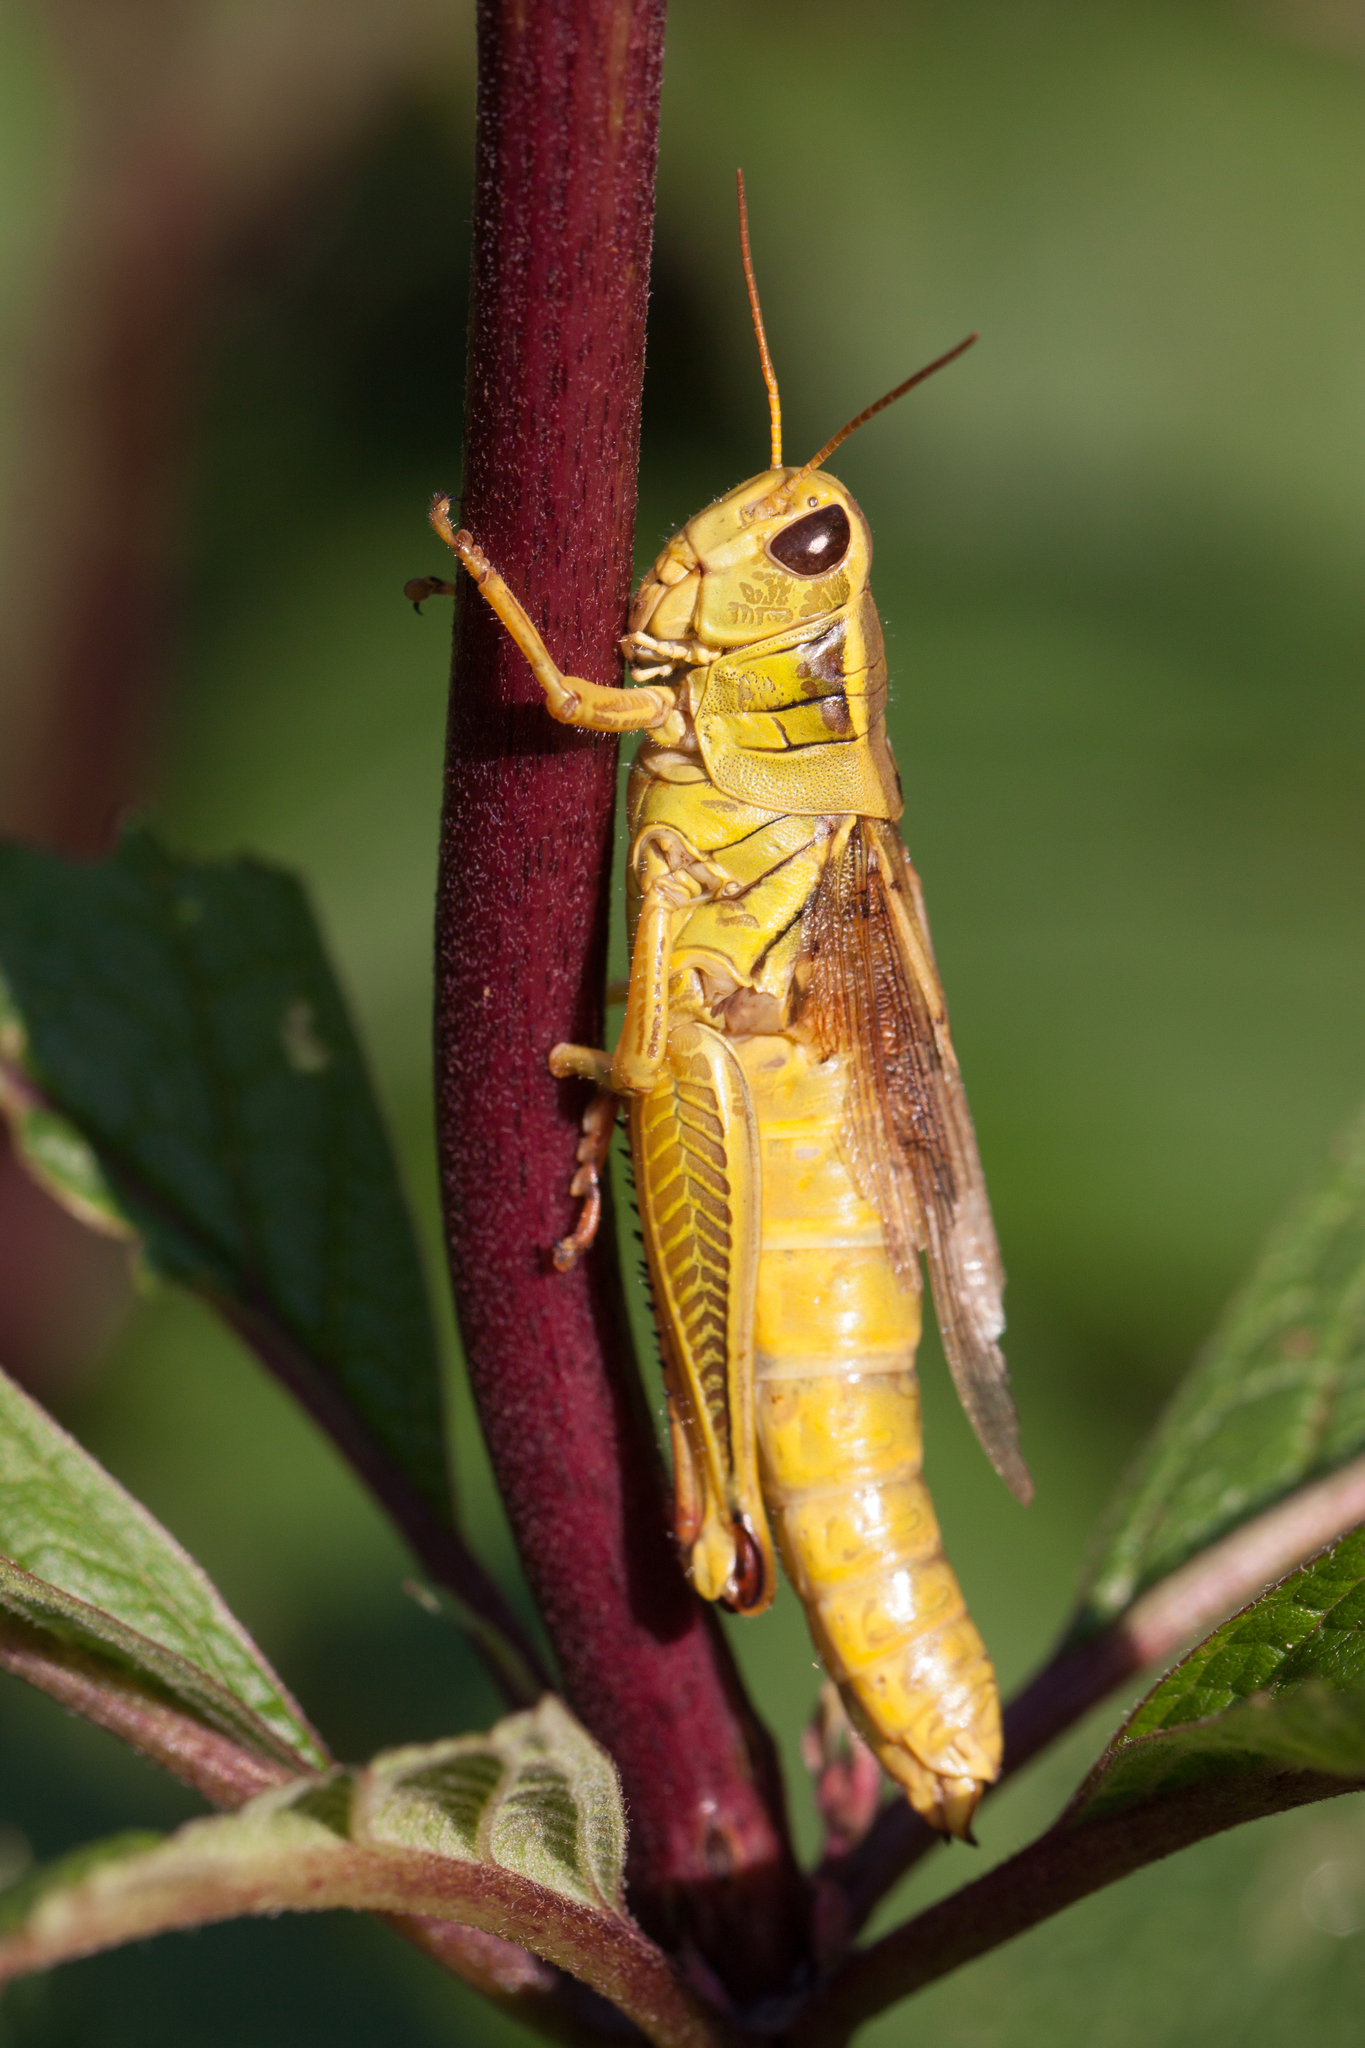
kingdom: Animalia
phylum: Arthropoda
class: Insecta
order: Orthoptera
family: Acrididae
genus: Melanoplus
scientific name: Melanoplus bivittatus
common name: Two-striped grasshopper
